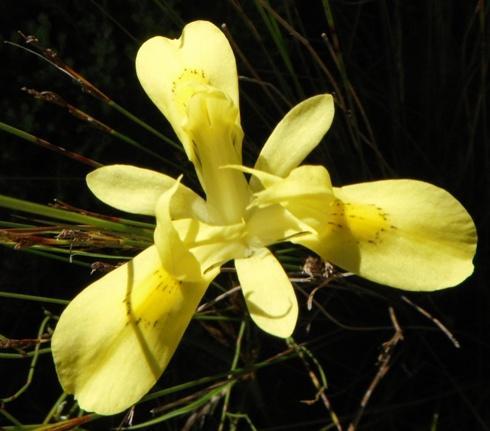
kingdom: Plantae
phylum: Tracheophyta
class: Liliopsida
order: Asparagales
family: Iridaceae
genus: Moraea
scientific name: Moraea neglecta
